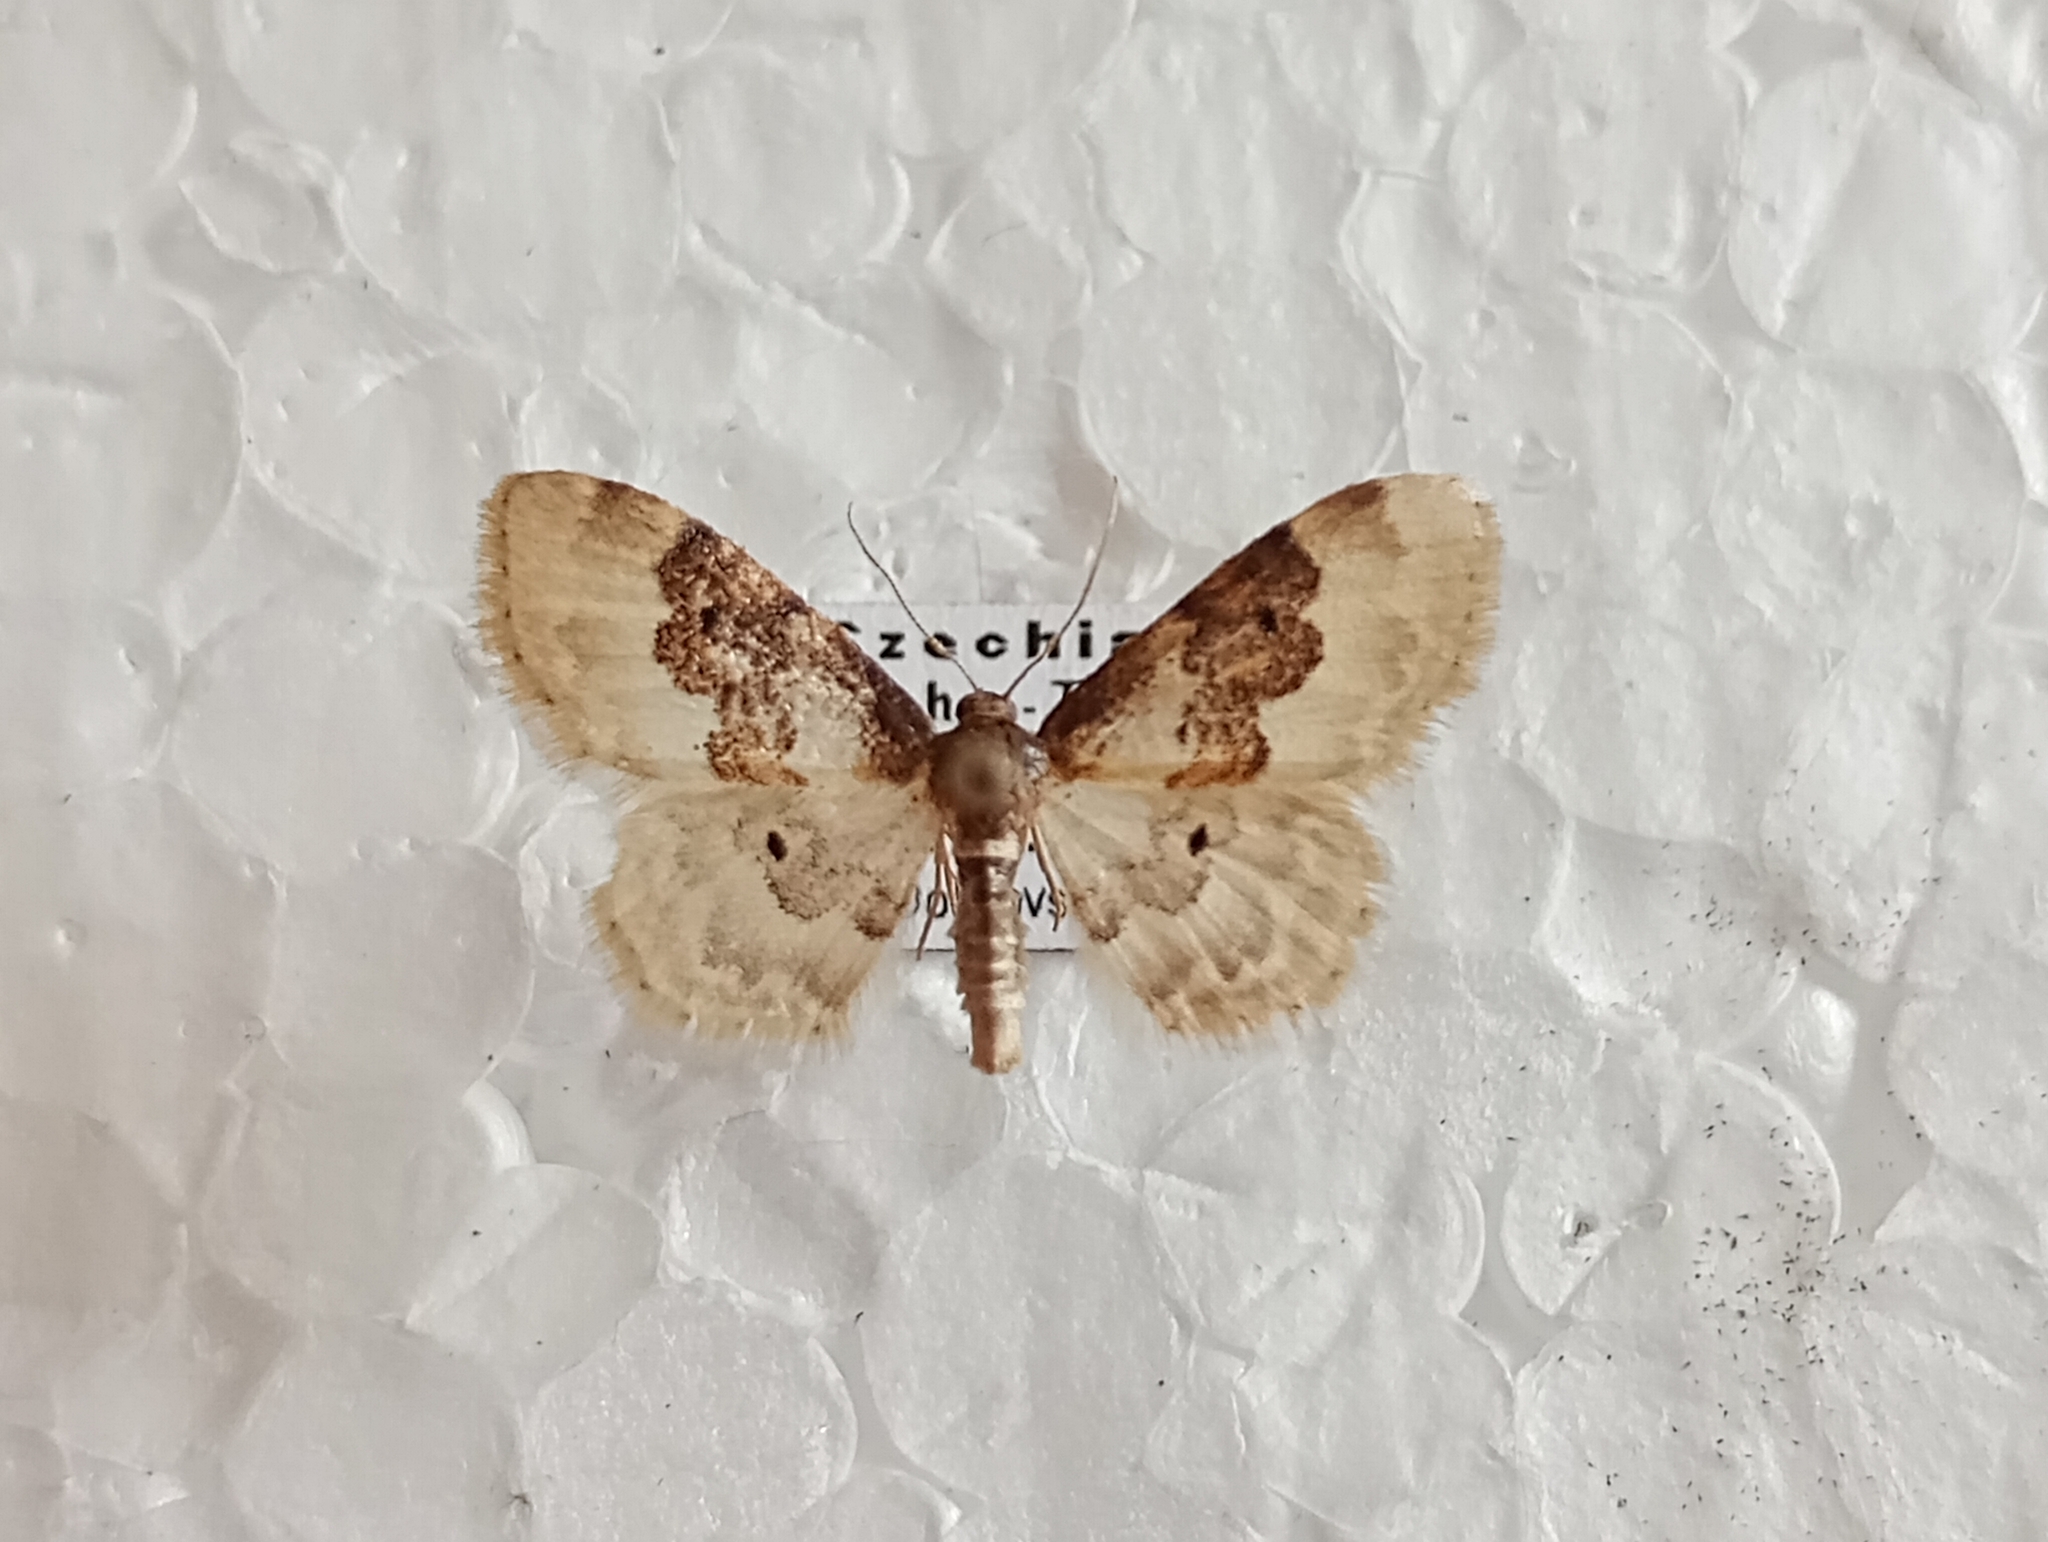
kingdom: Animalia
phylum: Arthropoda
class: Insecta
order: Lepidoptera
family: Geometridae
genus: Idaea
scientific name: Idaea rusticata
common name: Least carpet
